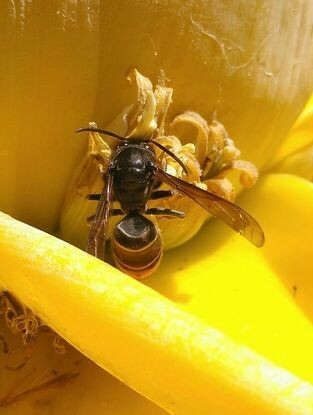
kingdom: Animalia
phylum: Arthropoda
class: Insecta
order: Hymenoptera
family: Vespidae
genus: Vespa
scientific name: Vespa velutina
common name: Asian hornet
